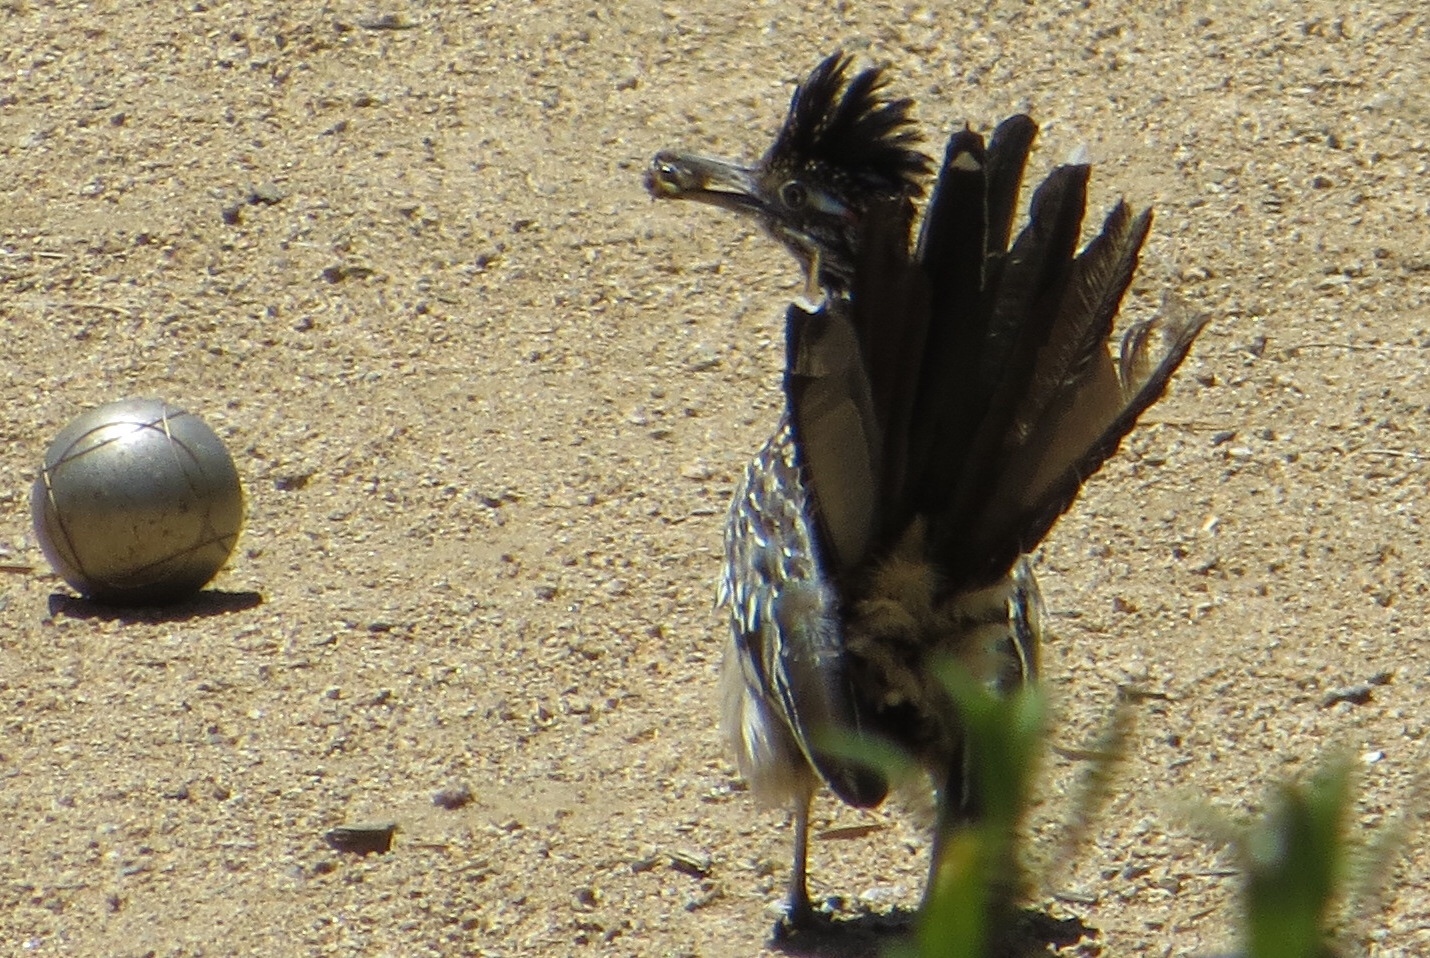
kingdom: Animalia
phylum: Chordata
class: Aves
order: Cuculiformes
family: Cuculidae
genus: Geococcyx
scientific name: Geococcyx californianus
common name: Greater roadrunner
